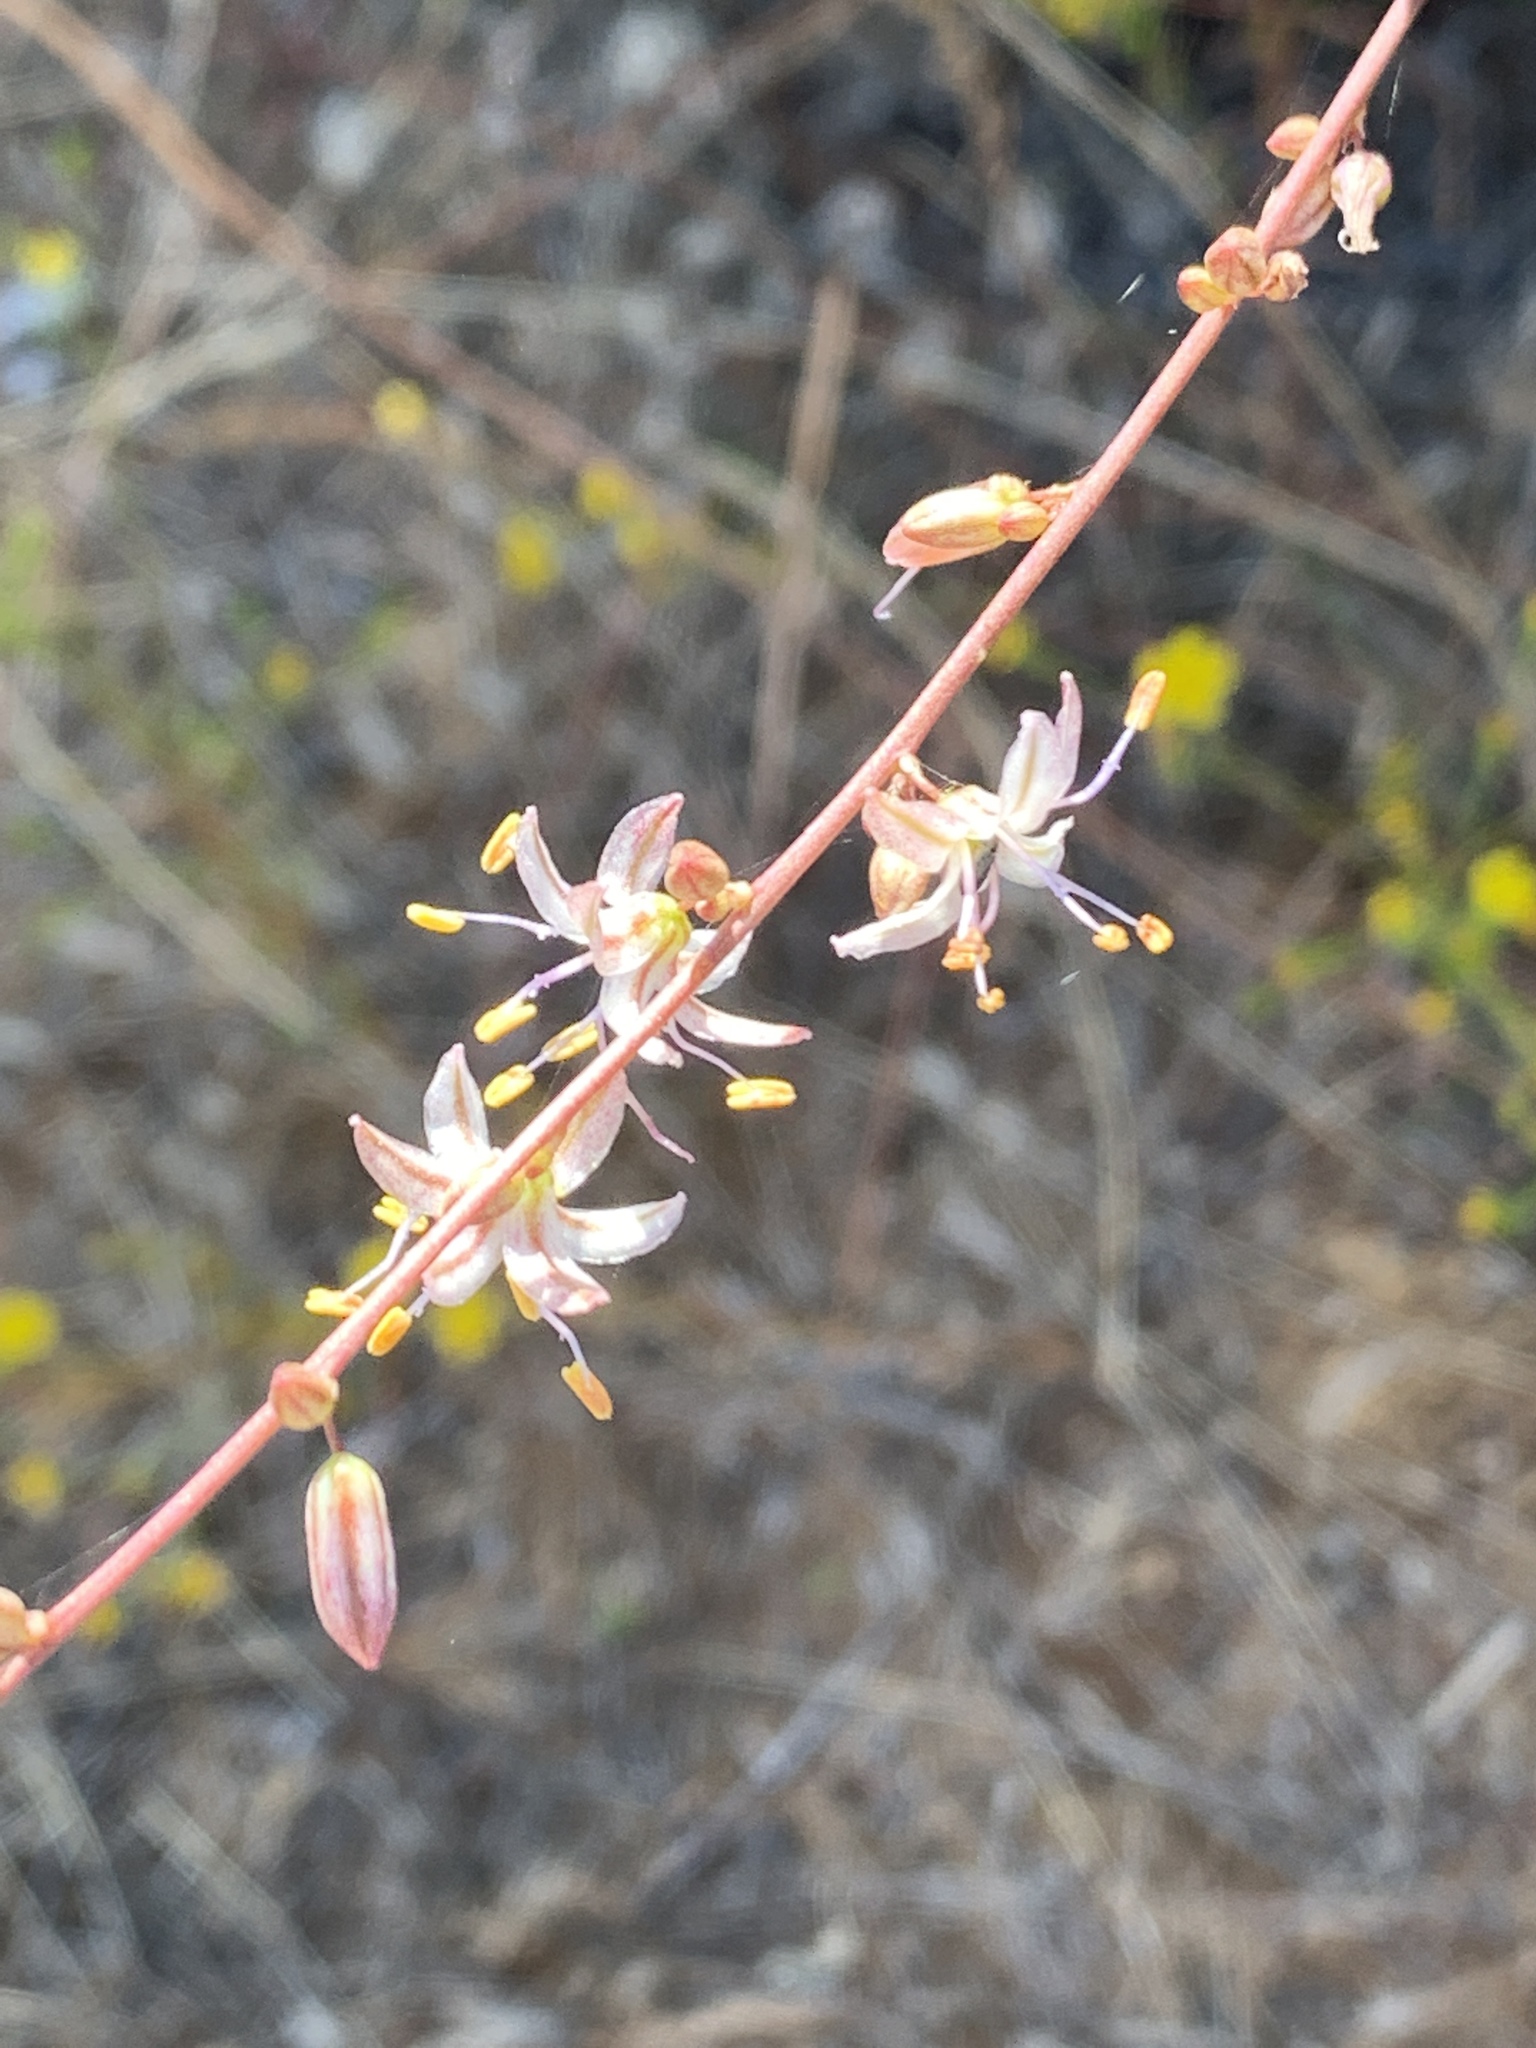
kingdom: Plantae
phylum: Tracheophyta
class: Liliopsida
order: Asparagales
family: Asparagaceae
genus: Hooveria
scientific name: Hooveria parviflora
